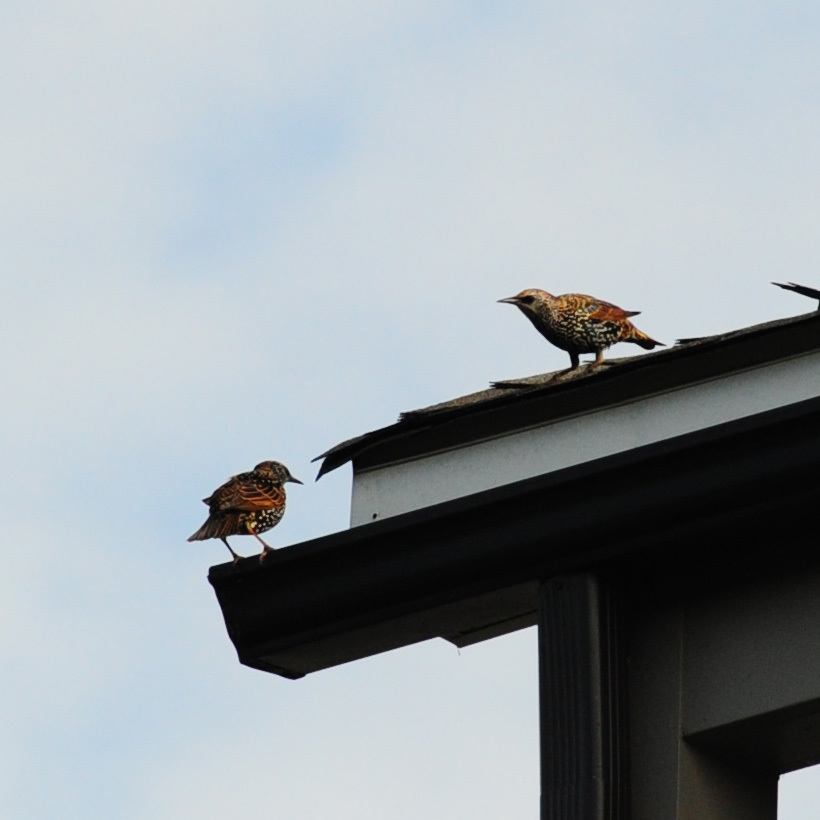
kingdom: Animalia
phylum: Chordata
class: Aves
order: Passeriformes
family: Sturnidae
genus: Sturnus
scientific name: Sturnus vulgaris
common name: Common starling
